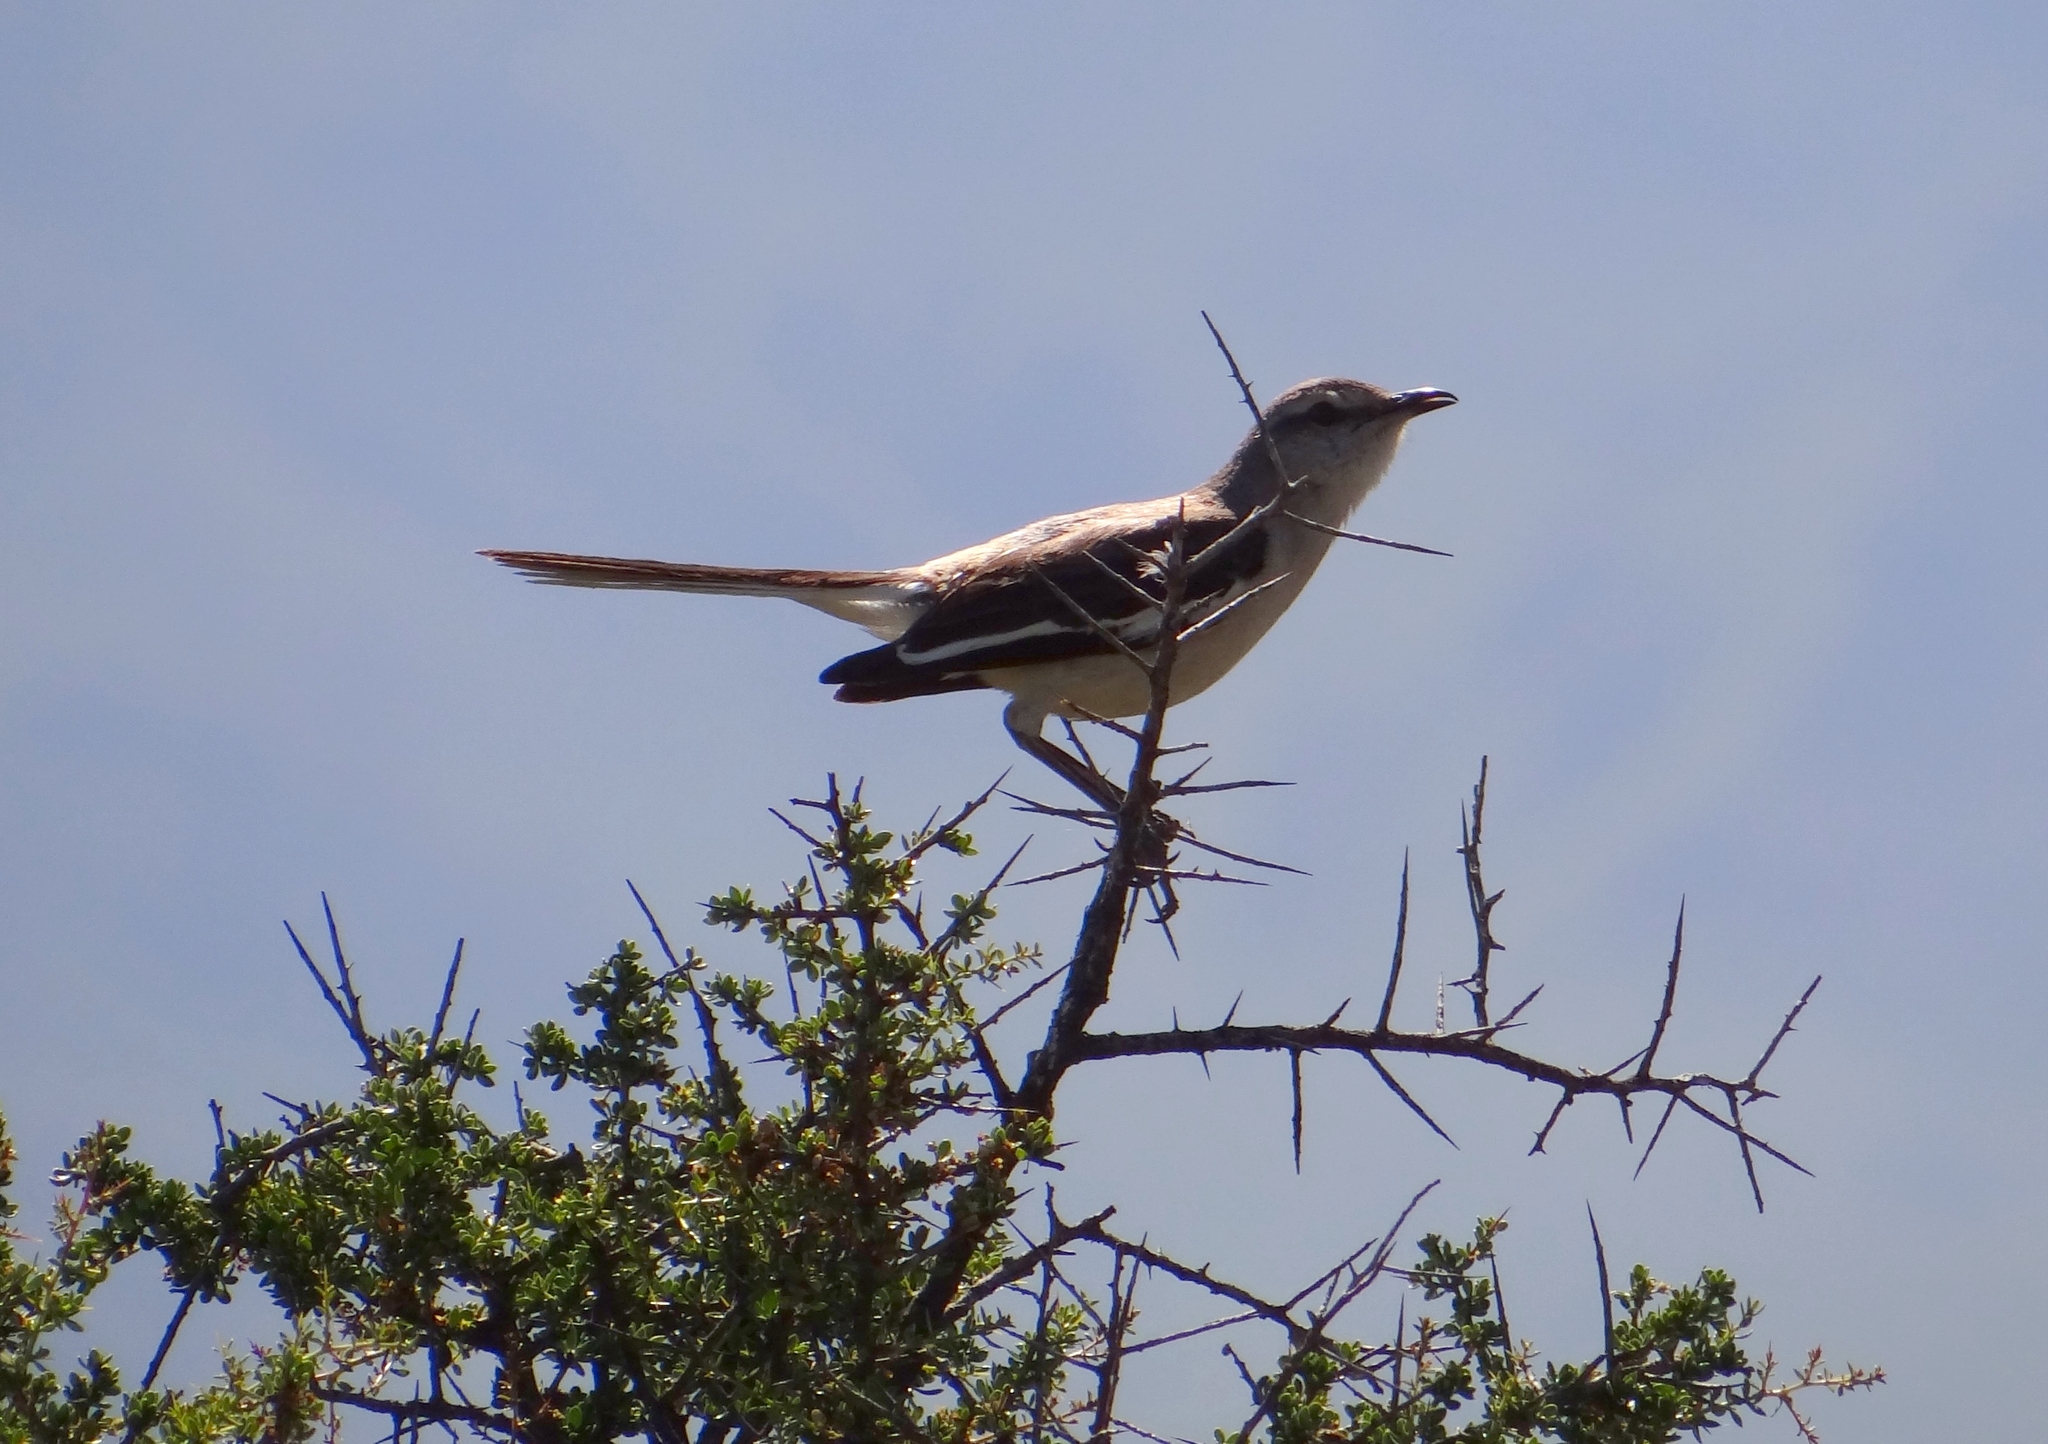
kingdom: Animalia
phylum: Chordata
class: Aves
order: Passeriformes
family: Mimidae
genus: Mimus
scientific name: Mimus triurus
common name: White-banded mockingbird
